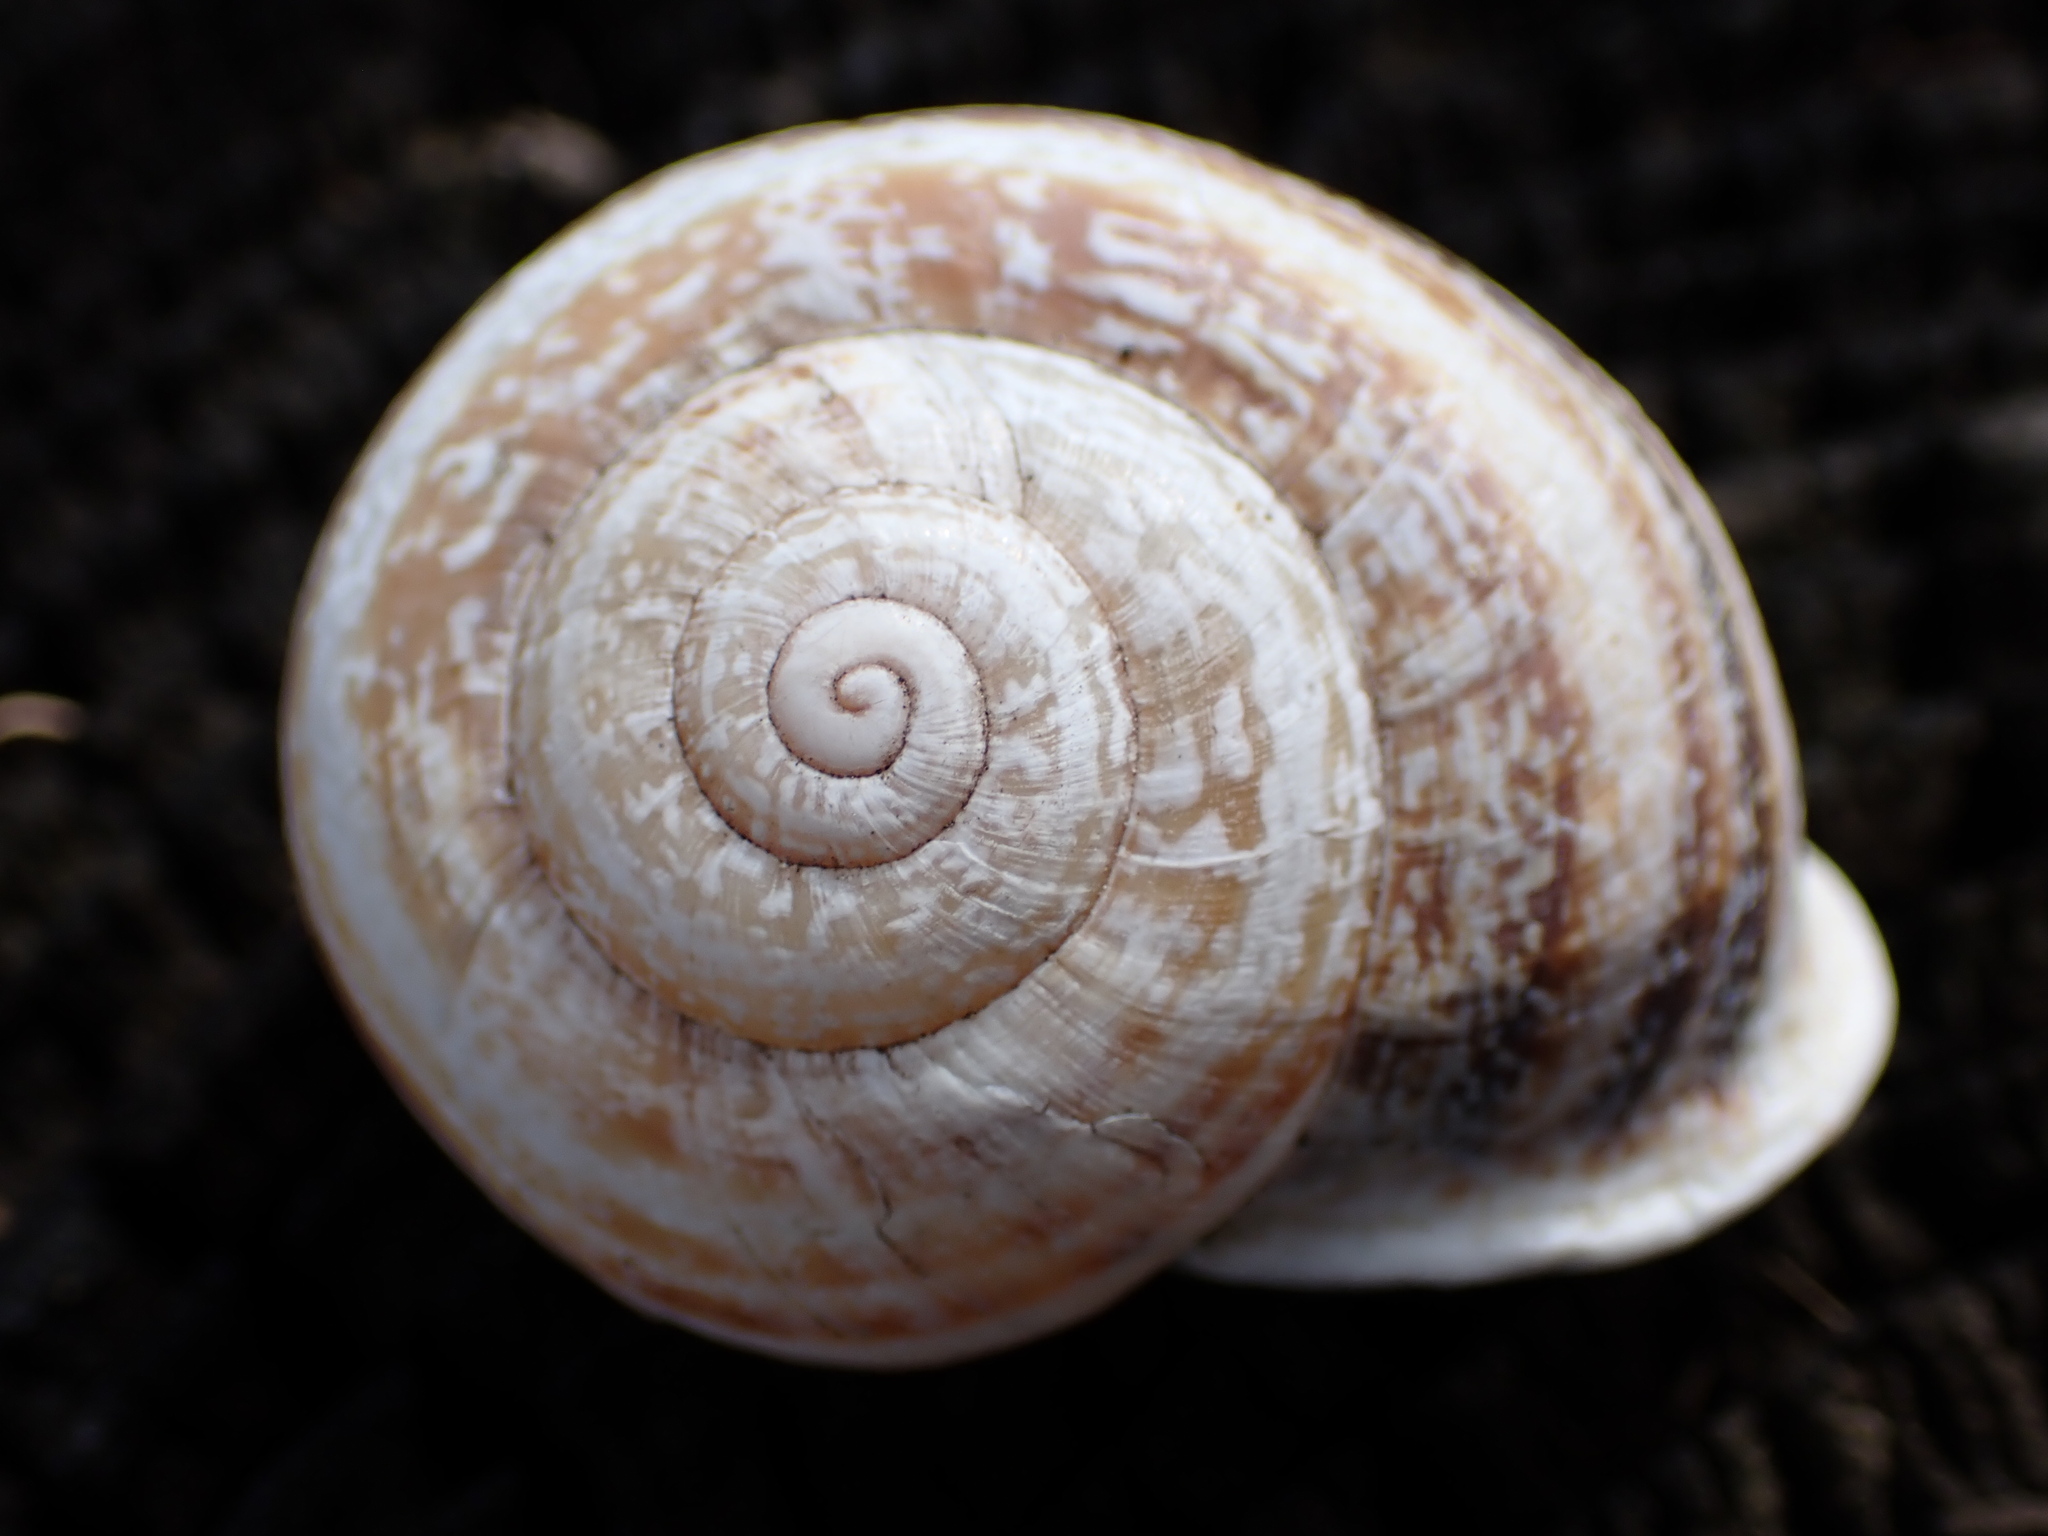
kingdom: Animalia
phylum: Mollusca
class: Gastropoda
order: Stylommatophora
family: Helicidae
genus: Otala
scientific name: Otala lactea
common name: Milk snail
